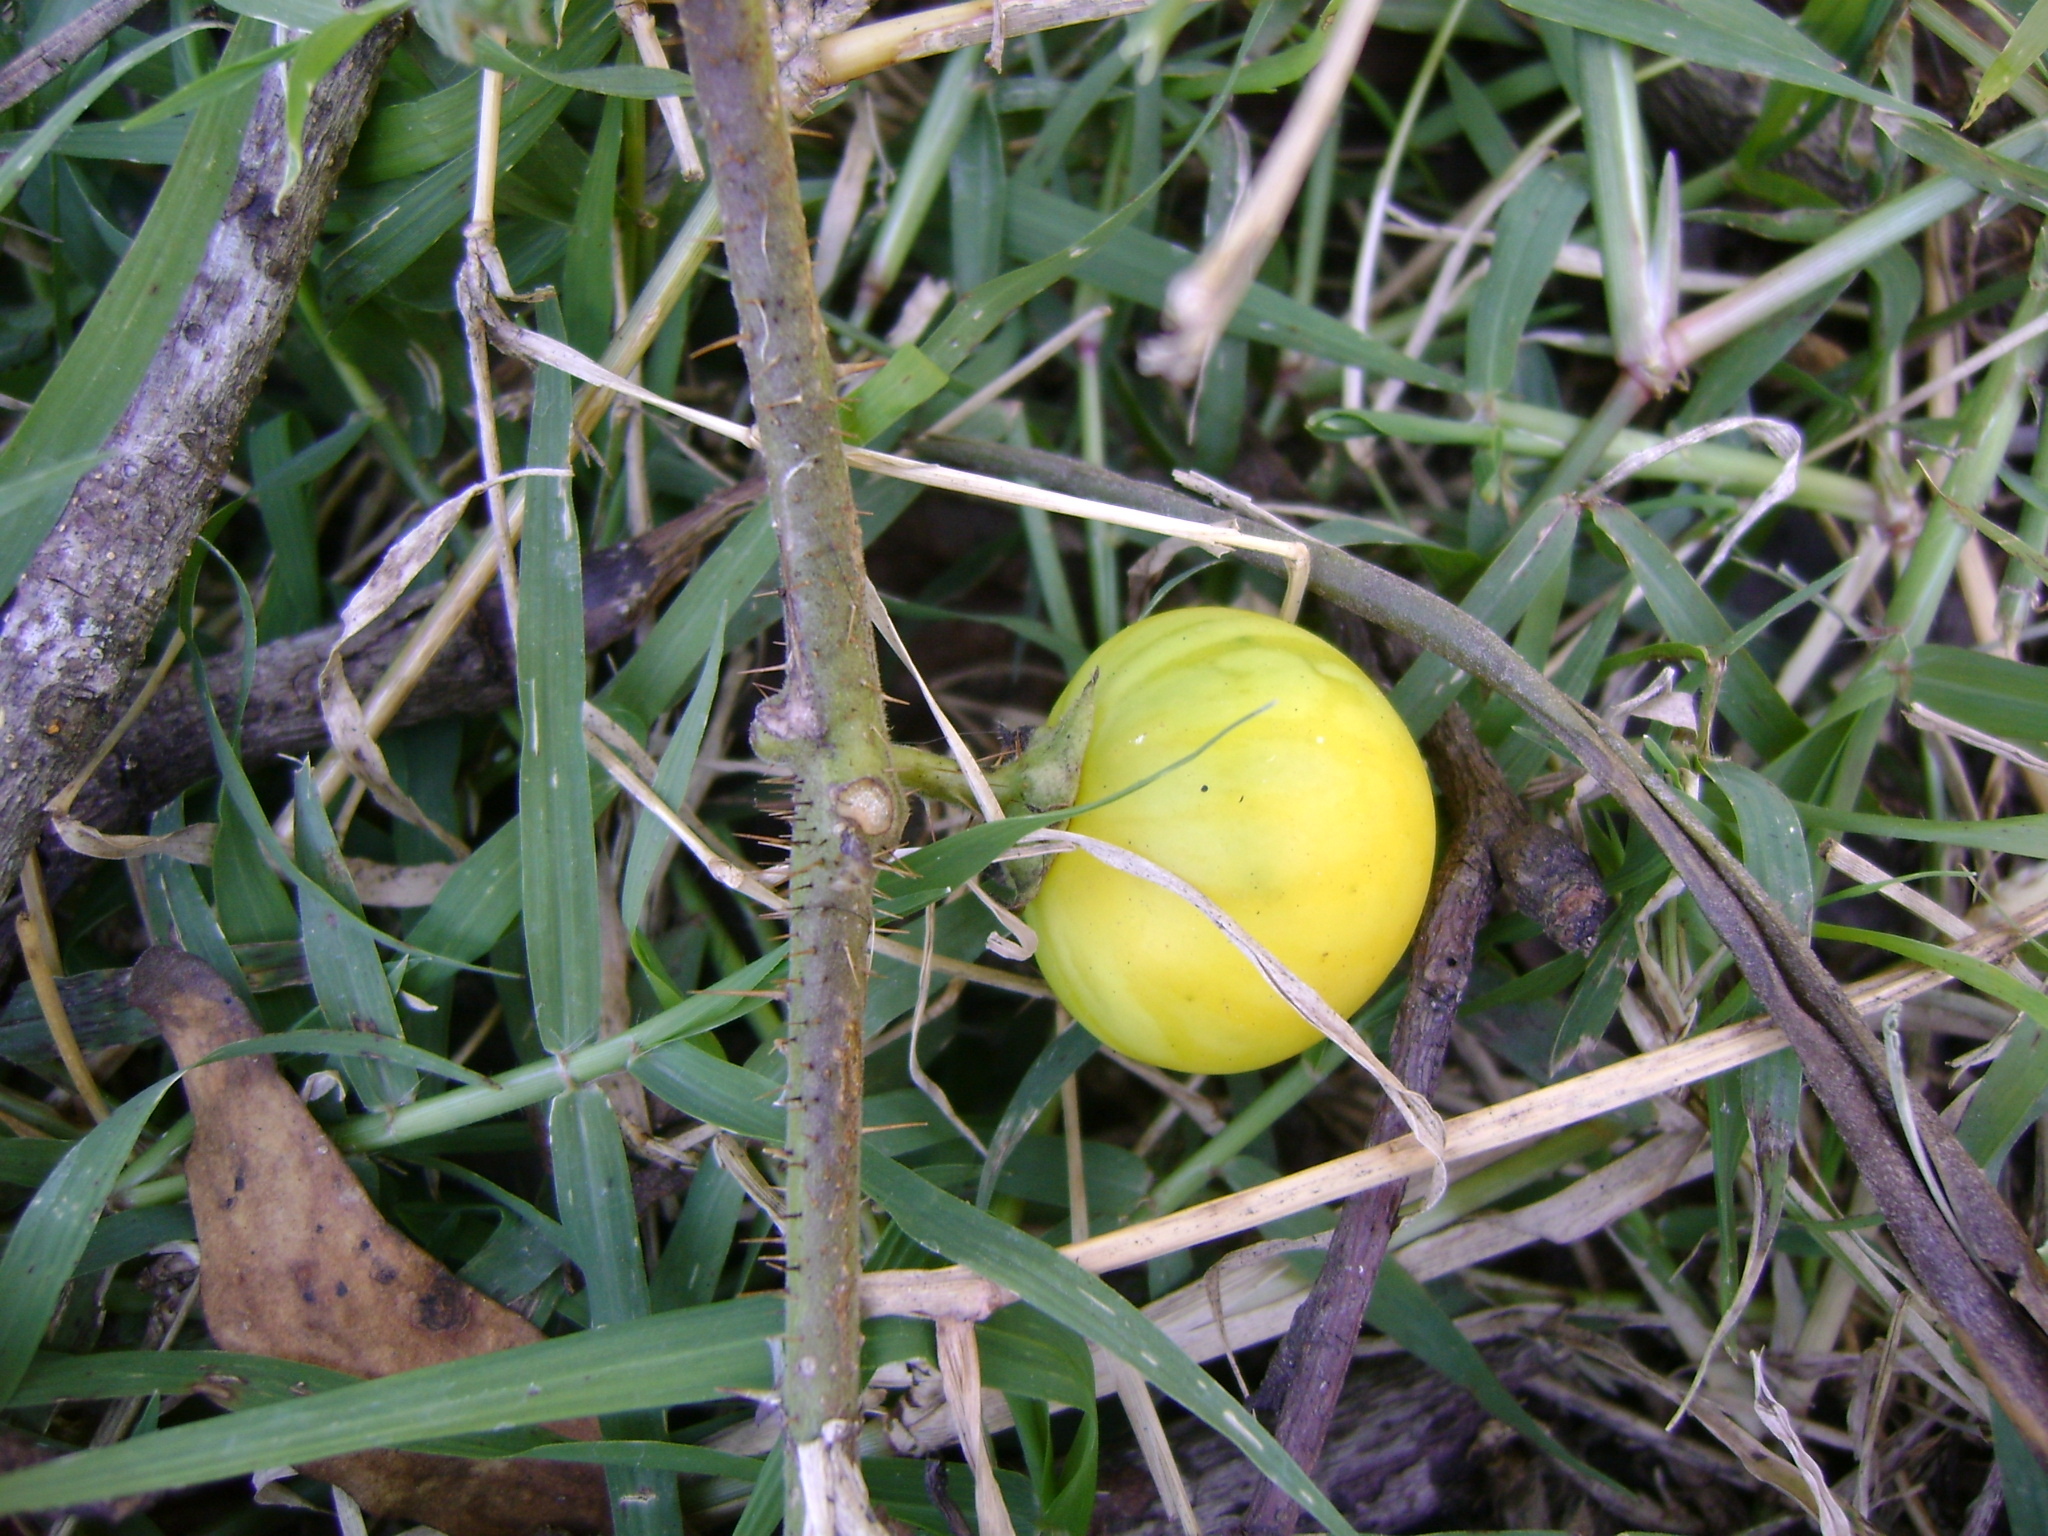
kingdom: Plantae
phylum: Tracheophyta
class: Magnoliopsida
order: Solanales
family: Solanaceae
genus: Solanum
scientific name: Solanum myriacanthum
